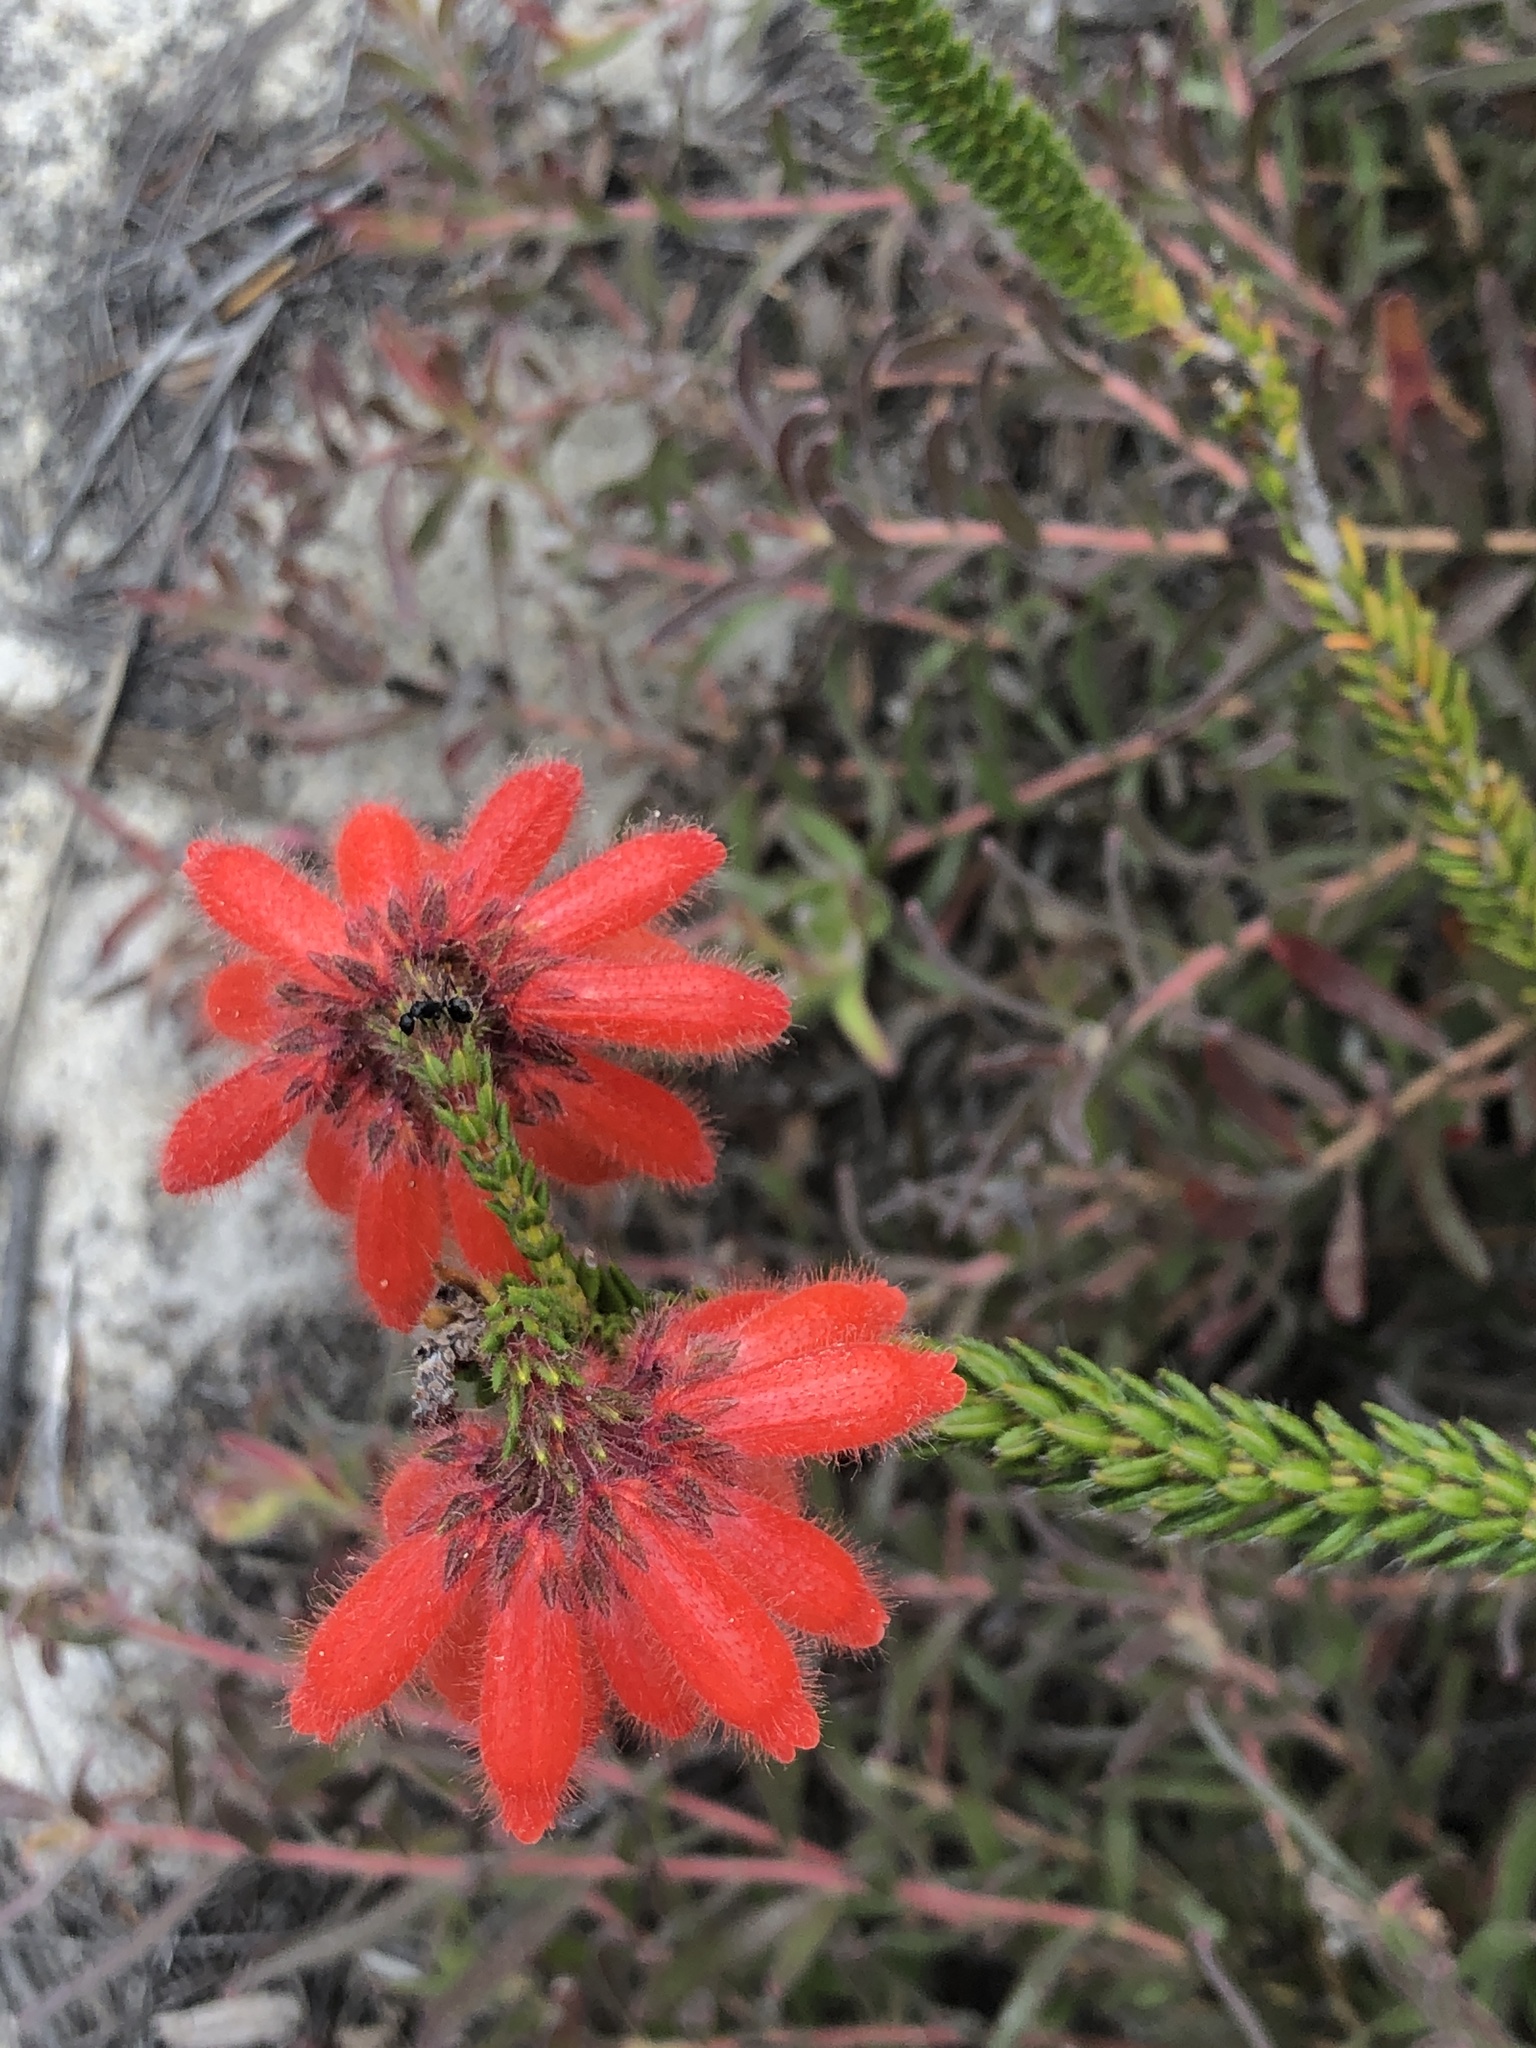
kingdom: Plantae
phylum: Tracheophyta
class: Magnoliopsida
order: Ericales
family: Ericaceae
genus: Erica
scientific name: Erica cerinthoides
